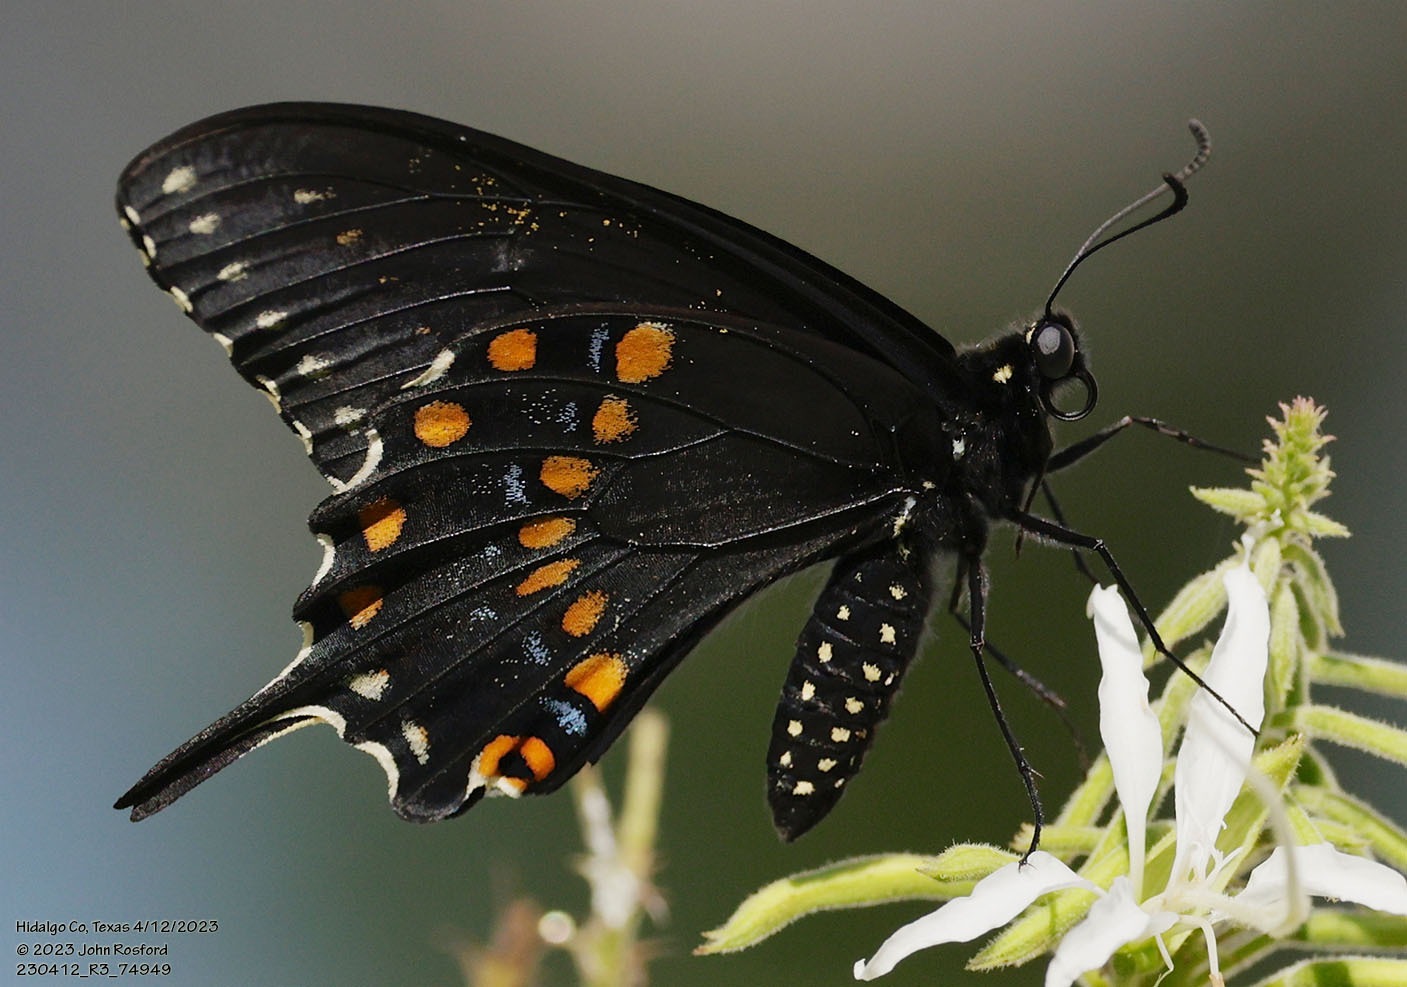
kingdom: Animalia
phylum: Arthropoda
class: Insecta
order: Lepidoptera
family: Papilionidae
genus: Papilio
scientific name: Papilio polyxenes
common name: Black swallowtail
